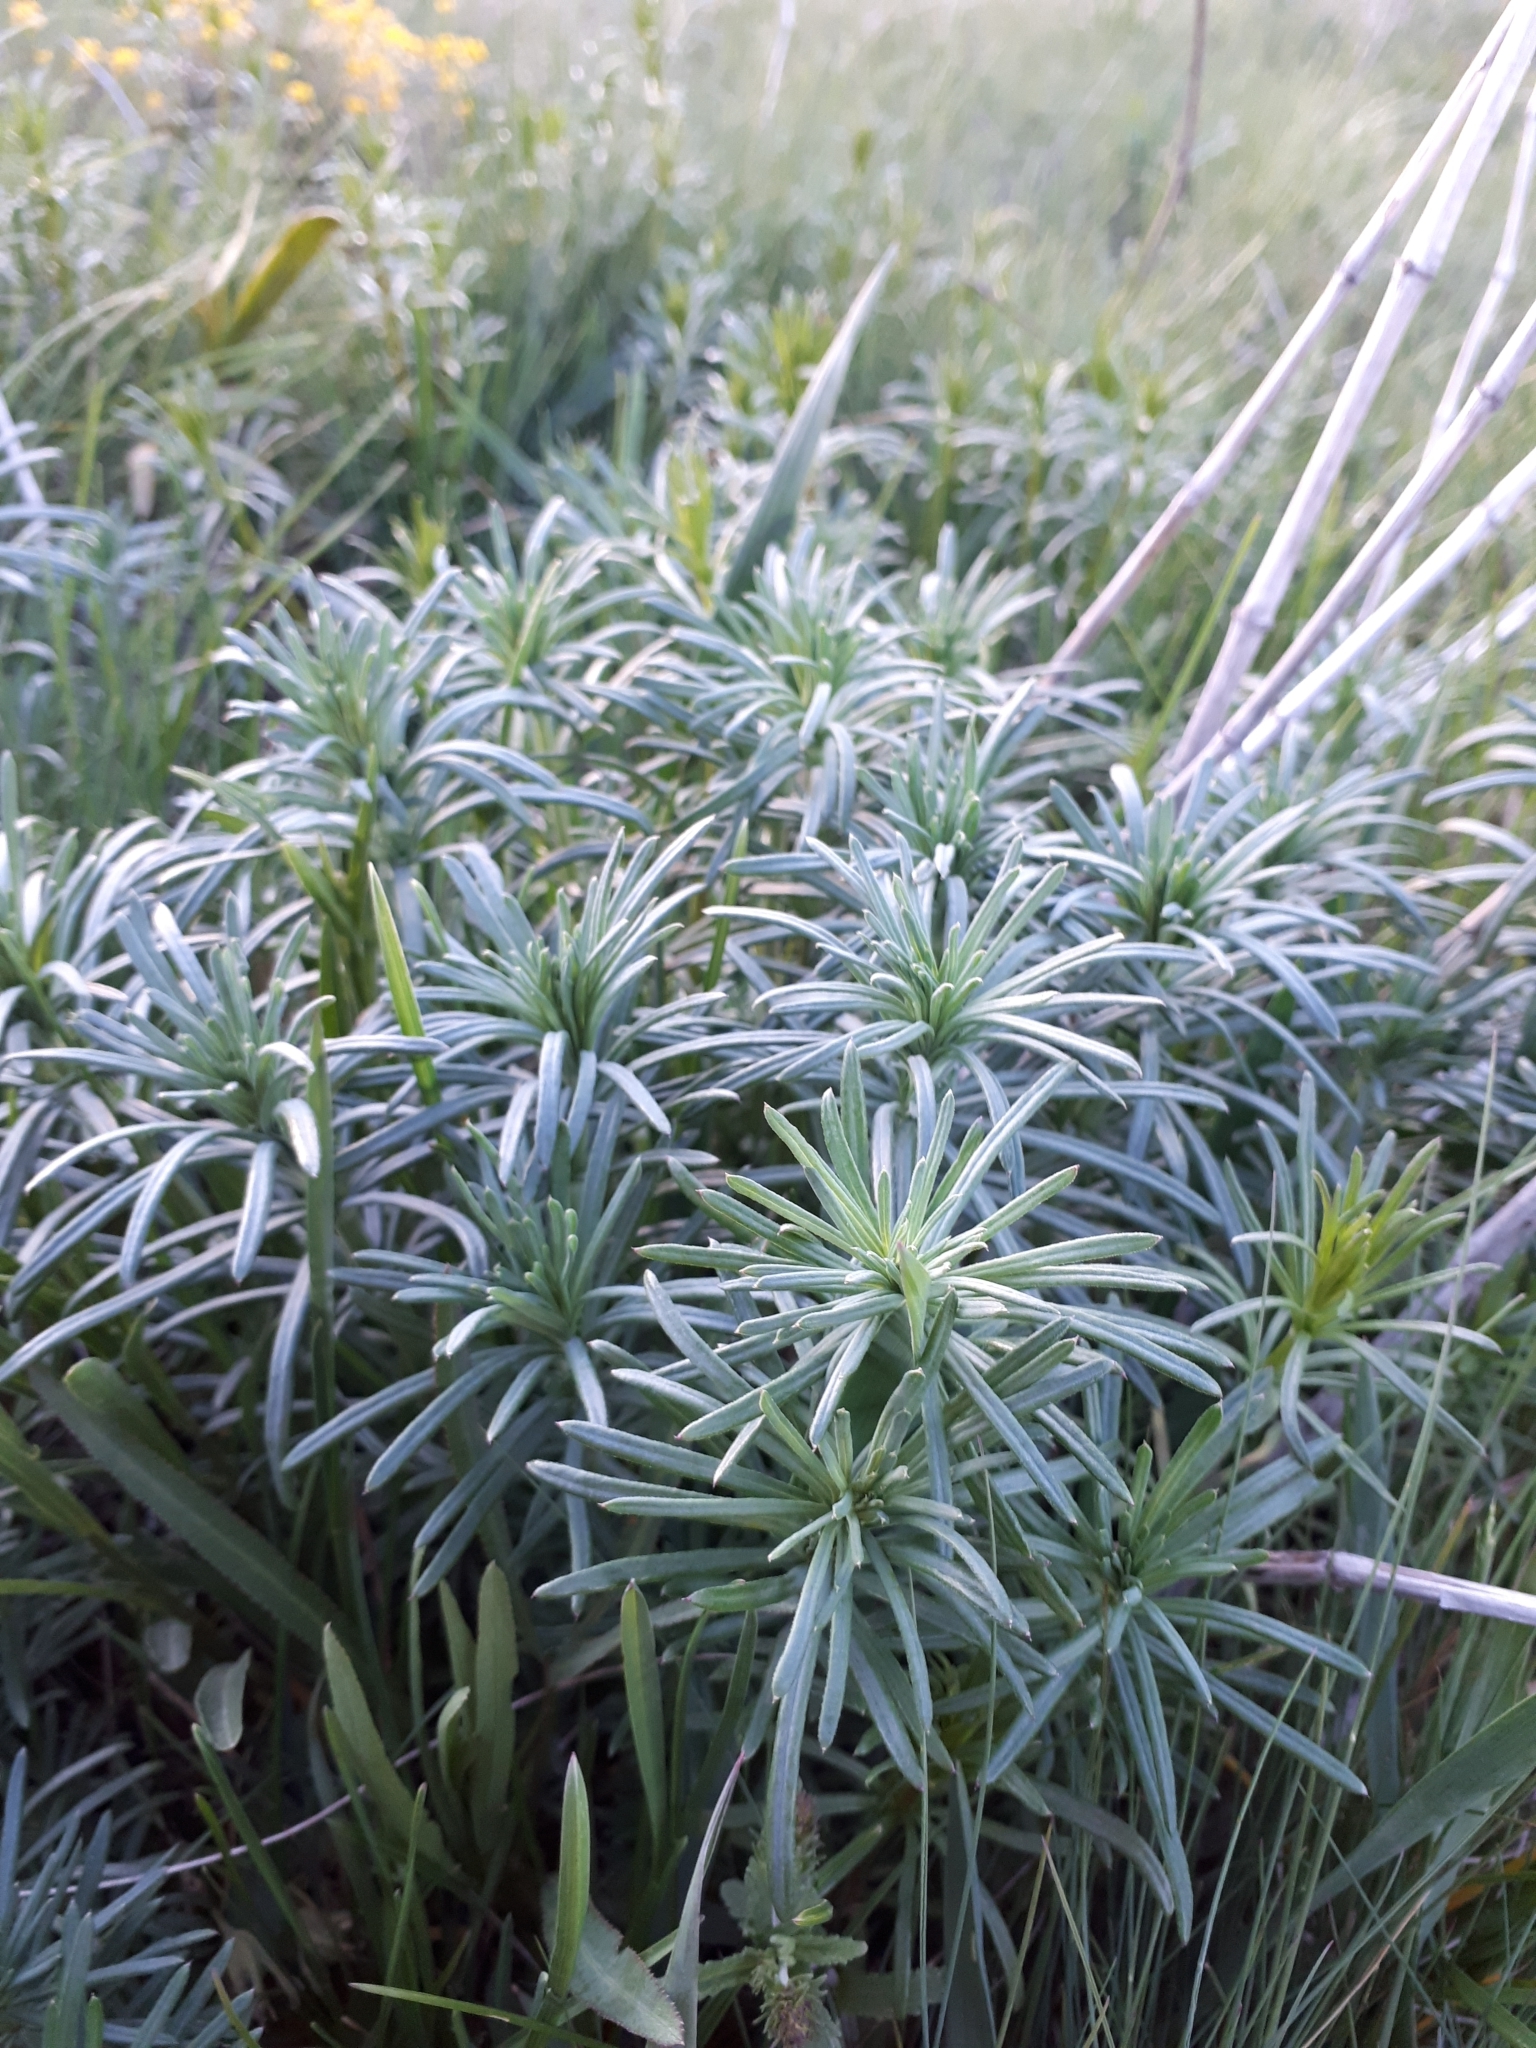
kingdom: Plantae
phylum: Tracheophyta
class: Magnoliopsida
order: Gentianales
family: Rubiaceae
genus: Galium
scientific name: Galium verum
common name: Lady's bedstraw
